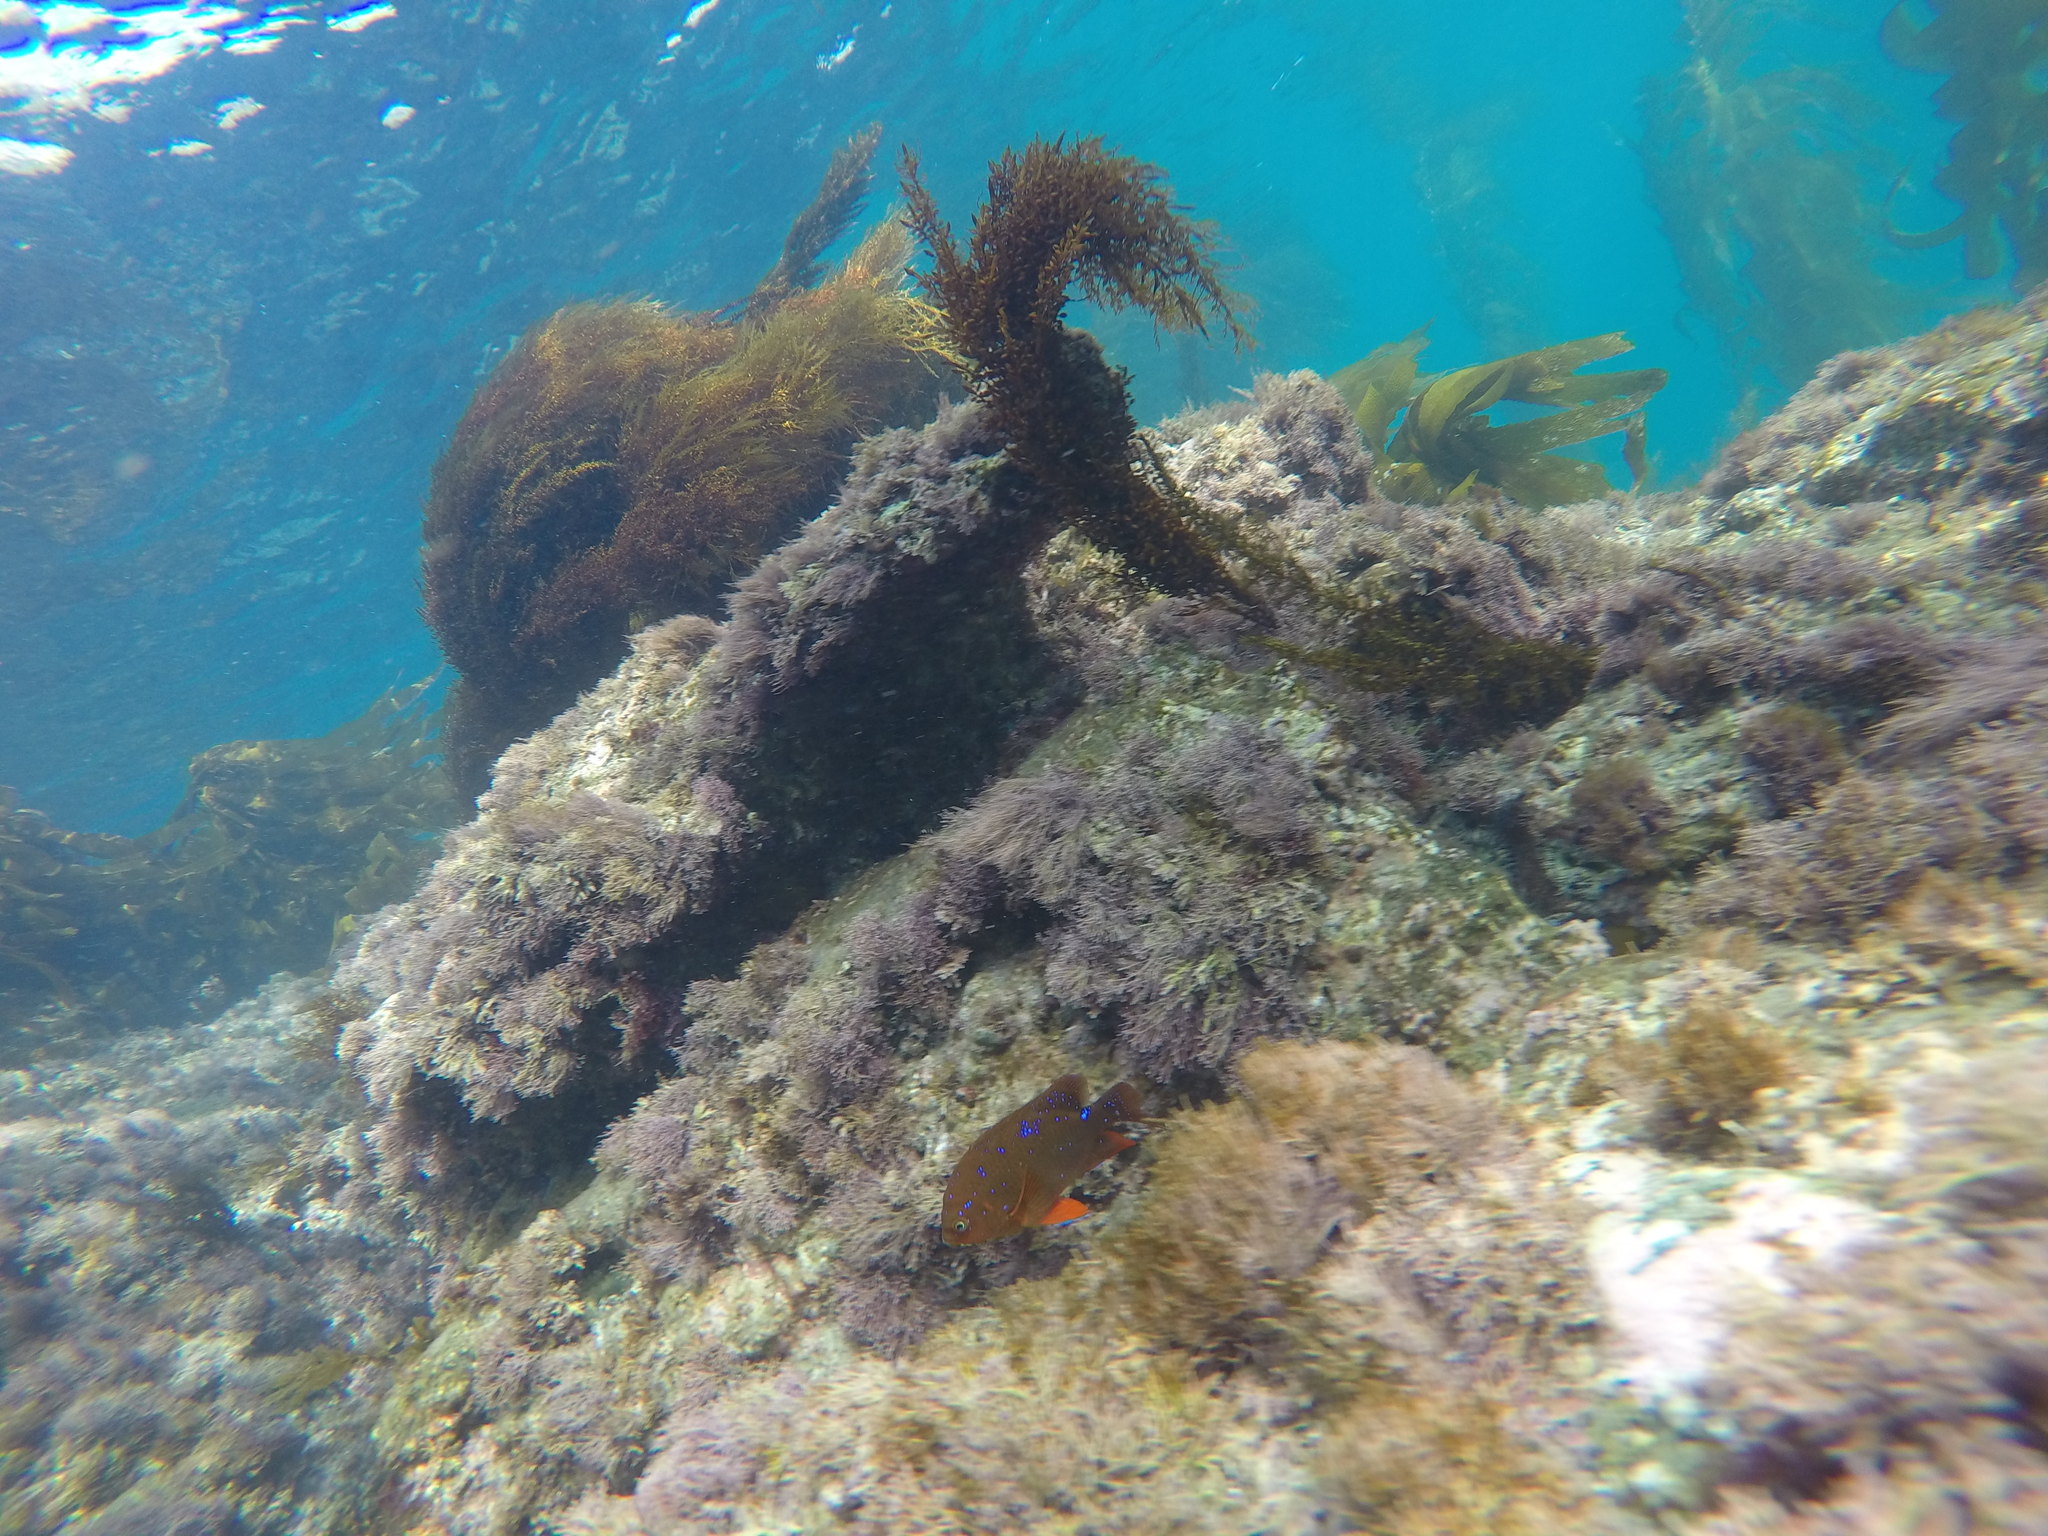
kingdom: Animalia
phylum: Chordata
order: Perciformes
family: Pomacentridae
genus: Hypsypops
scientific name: Hypsypops rubicundus
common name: Garibaldi
